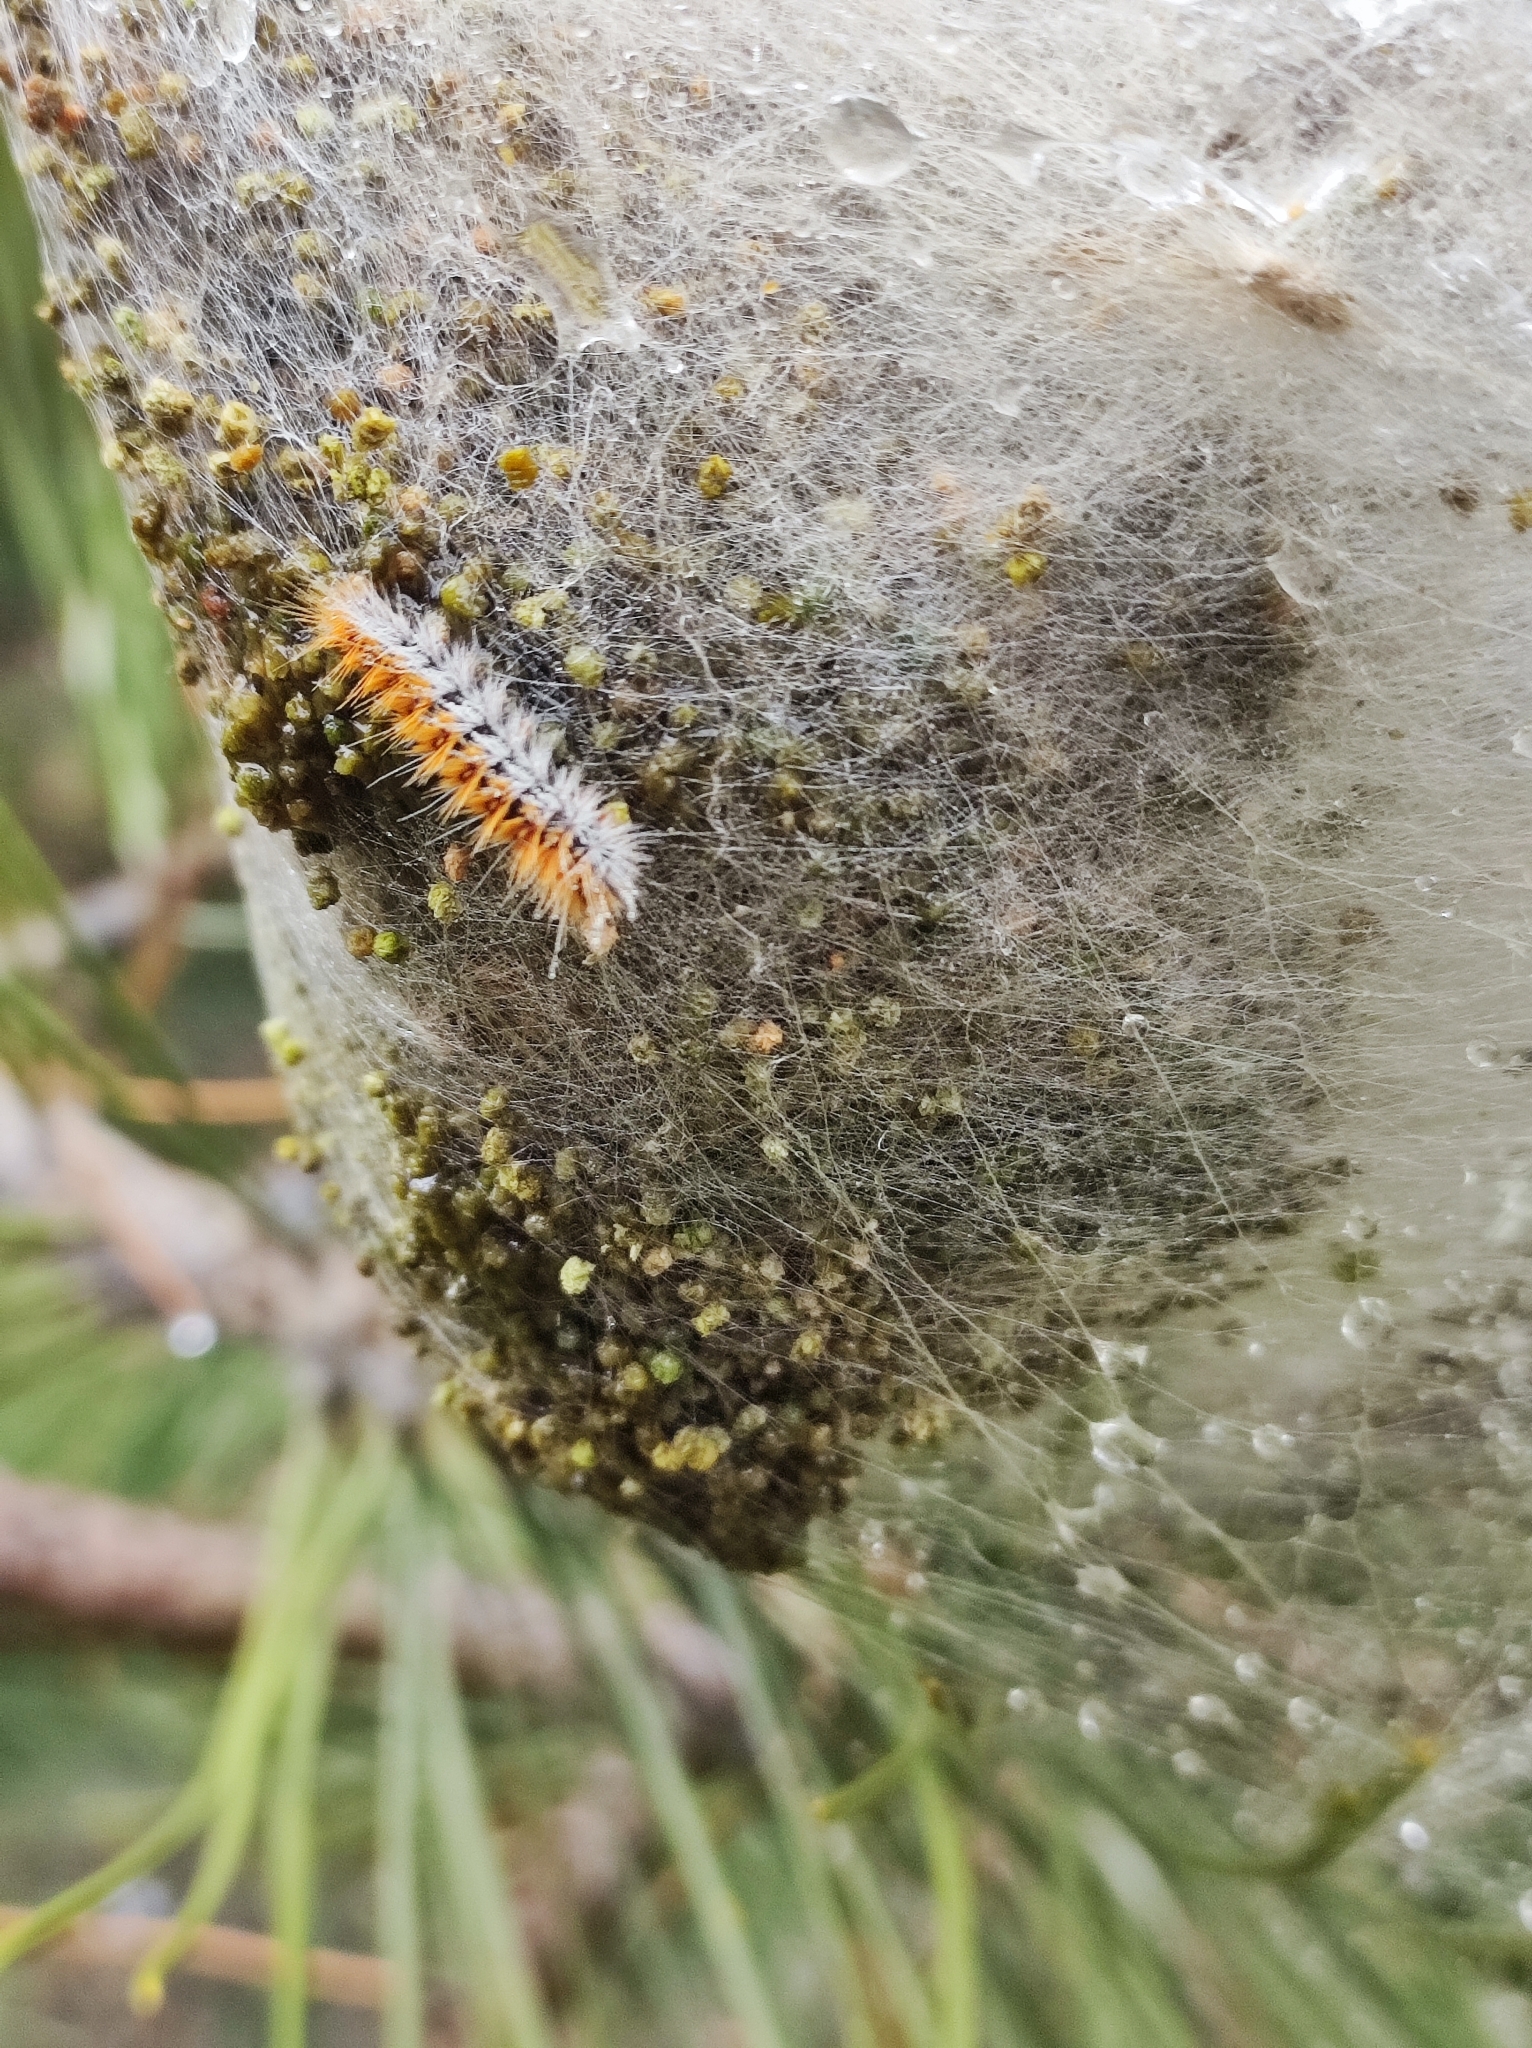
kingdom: Animalia
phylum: Arthropoda
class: Insecta
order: Lepidoptera
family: Notodontidae
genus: Thaumetopoea
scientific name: Thaumetopoea pityocampa
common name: Pine processionary
